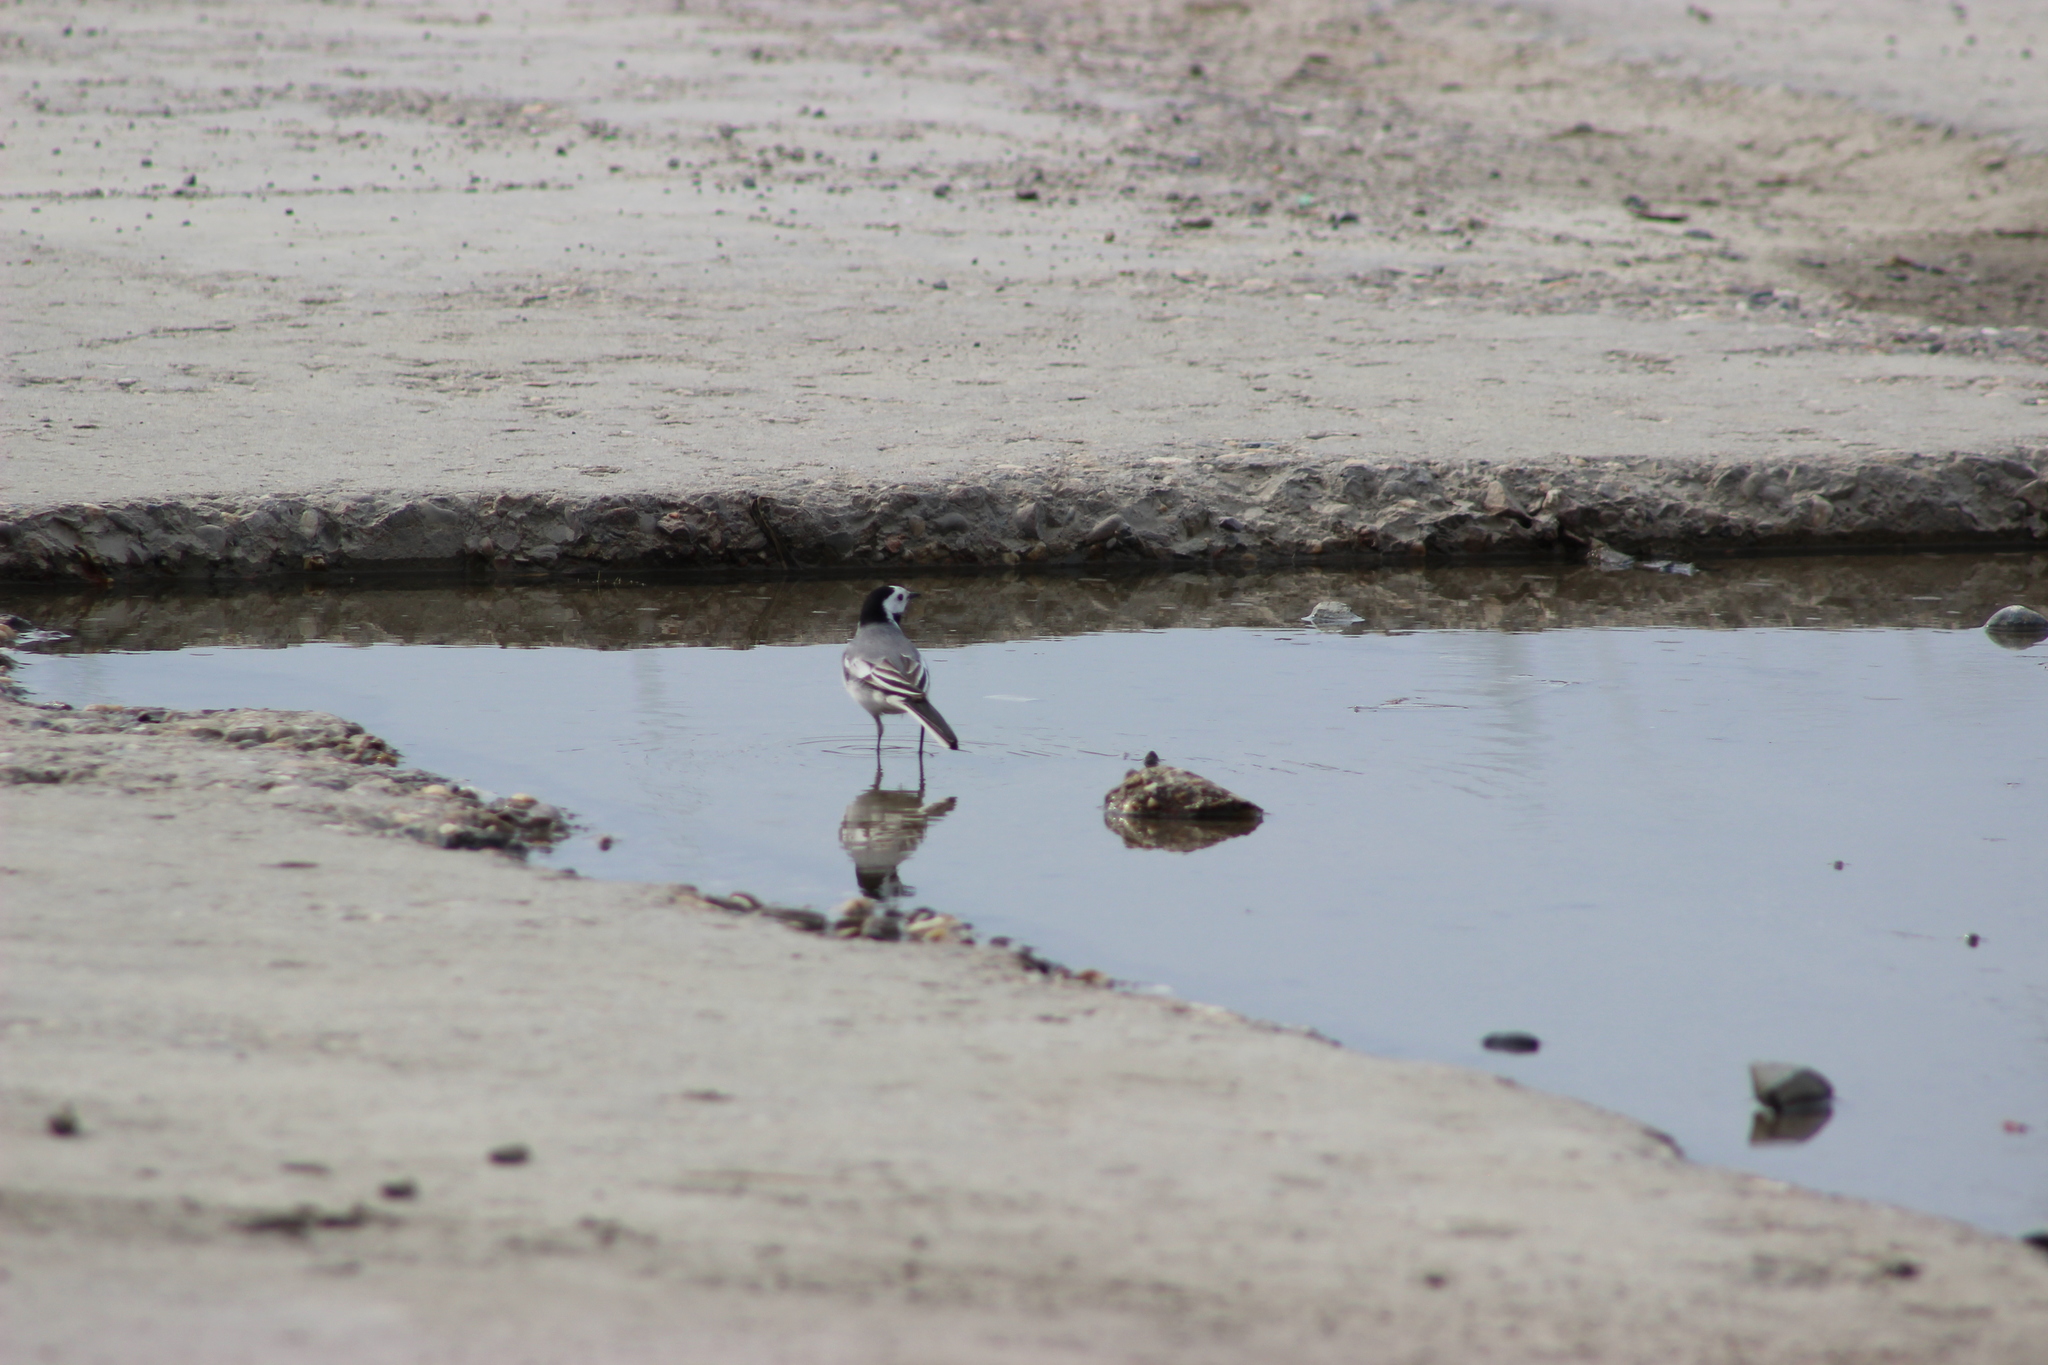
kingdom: Animalia
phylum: Chordata
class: Aves
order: Passeriformes
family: Motacillidae
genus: Motacilla
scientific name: Motacilla alba
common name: White wagtail
